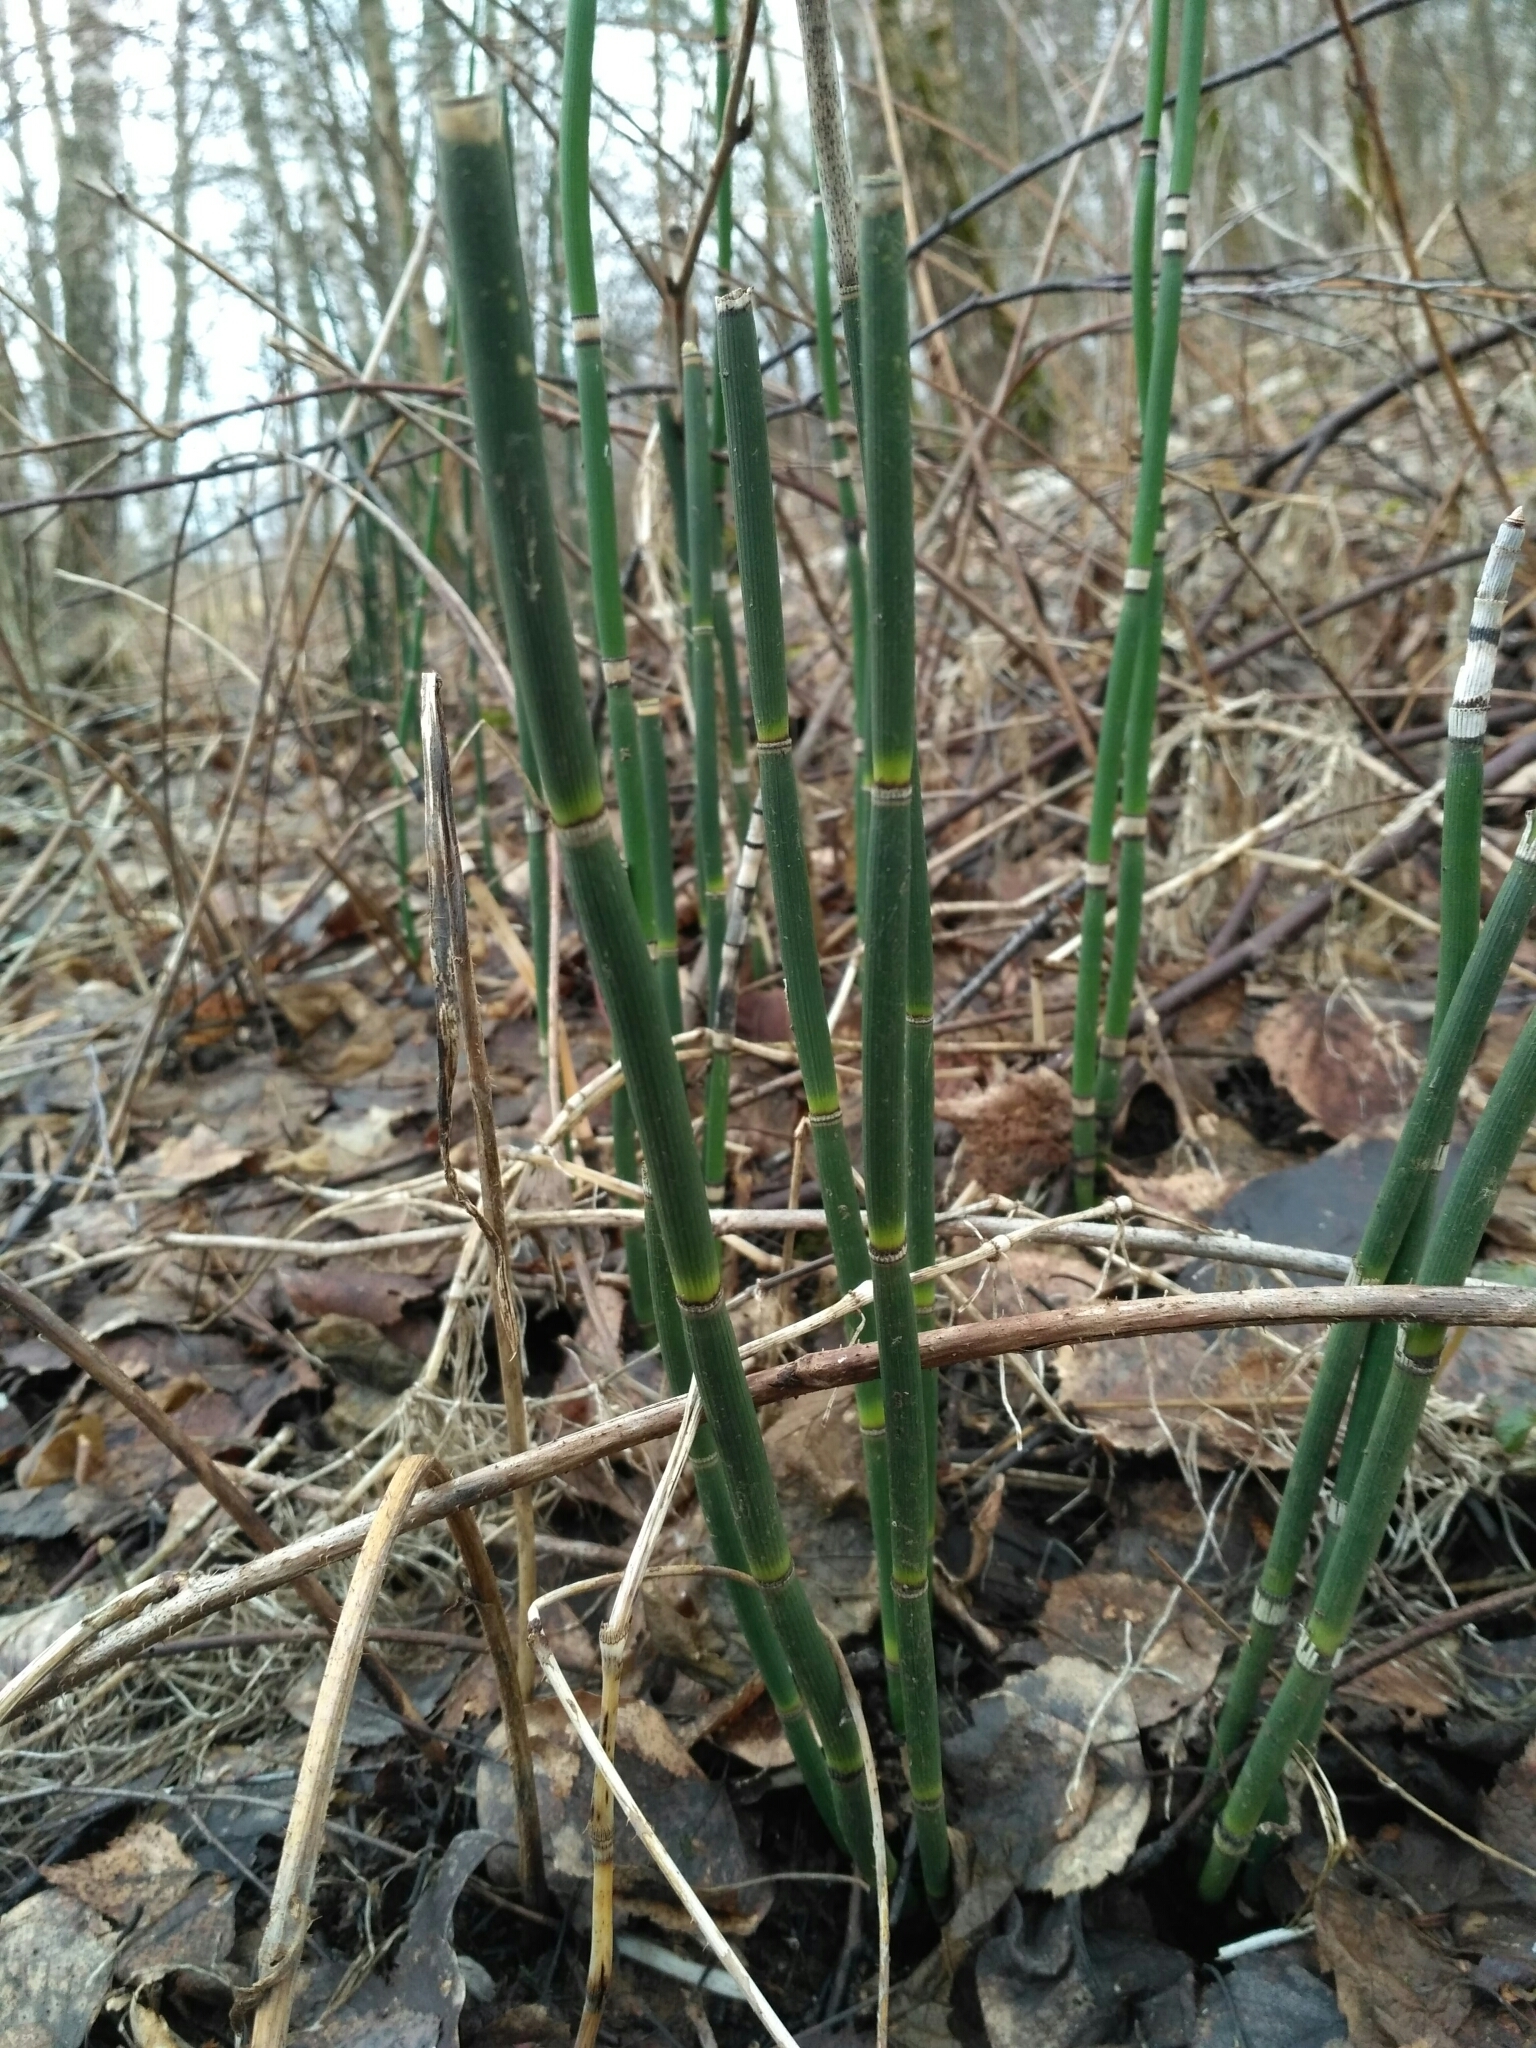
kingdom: Plantae
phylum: Tracheophyta
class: Polypodiopsida
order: Equisetales
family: Equisetaceae
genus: Equisetum
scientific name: Equisetum hyemale
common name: Rough horsetail
